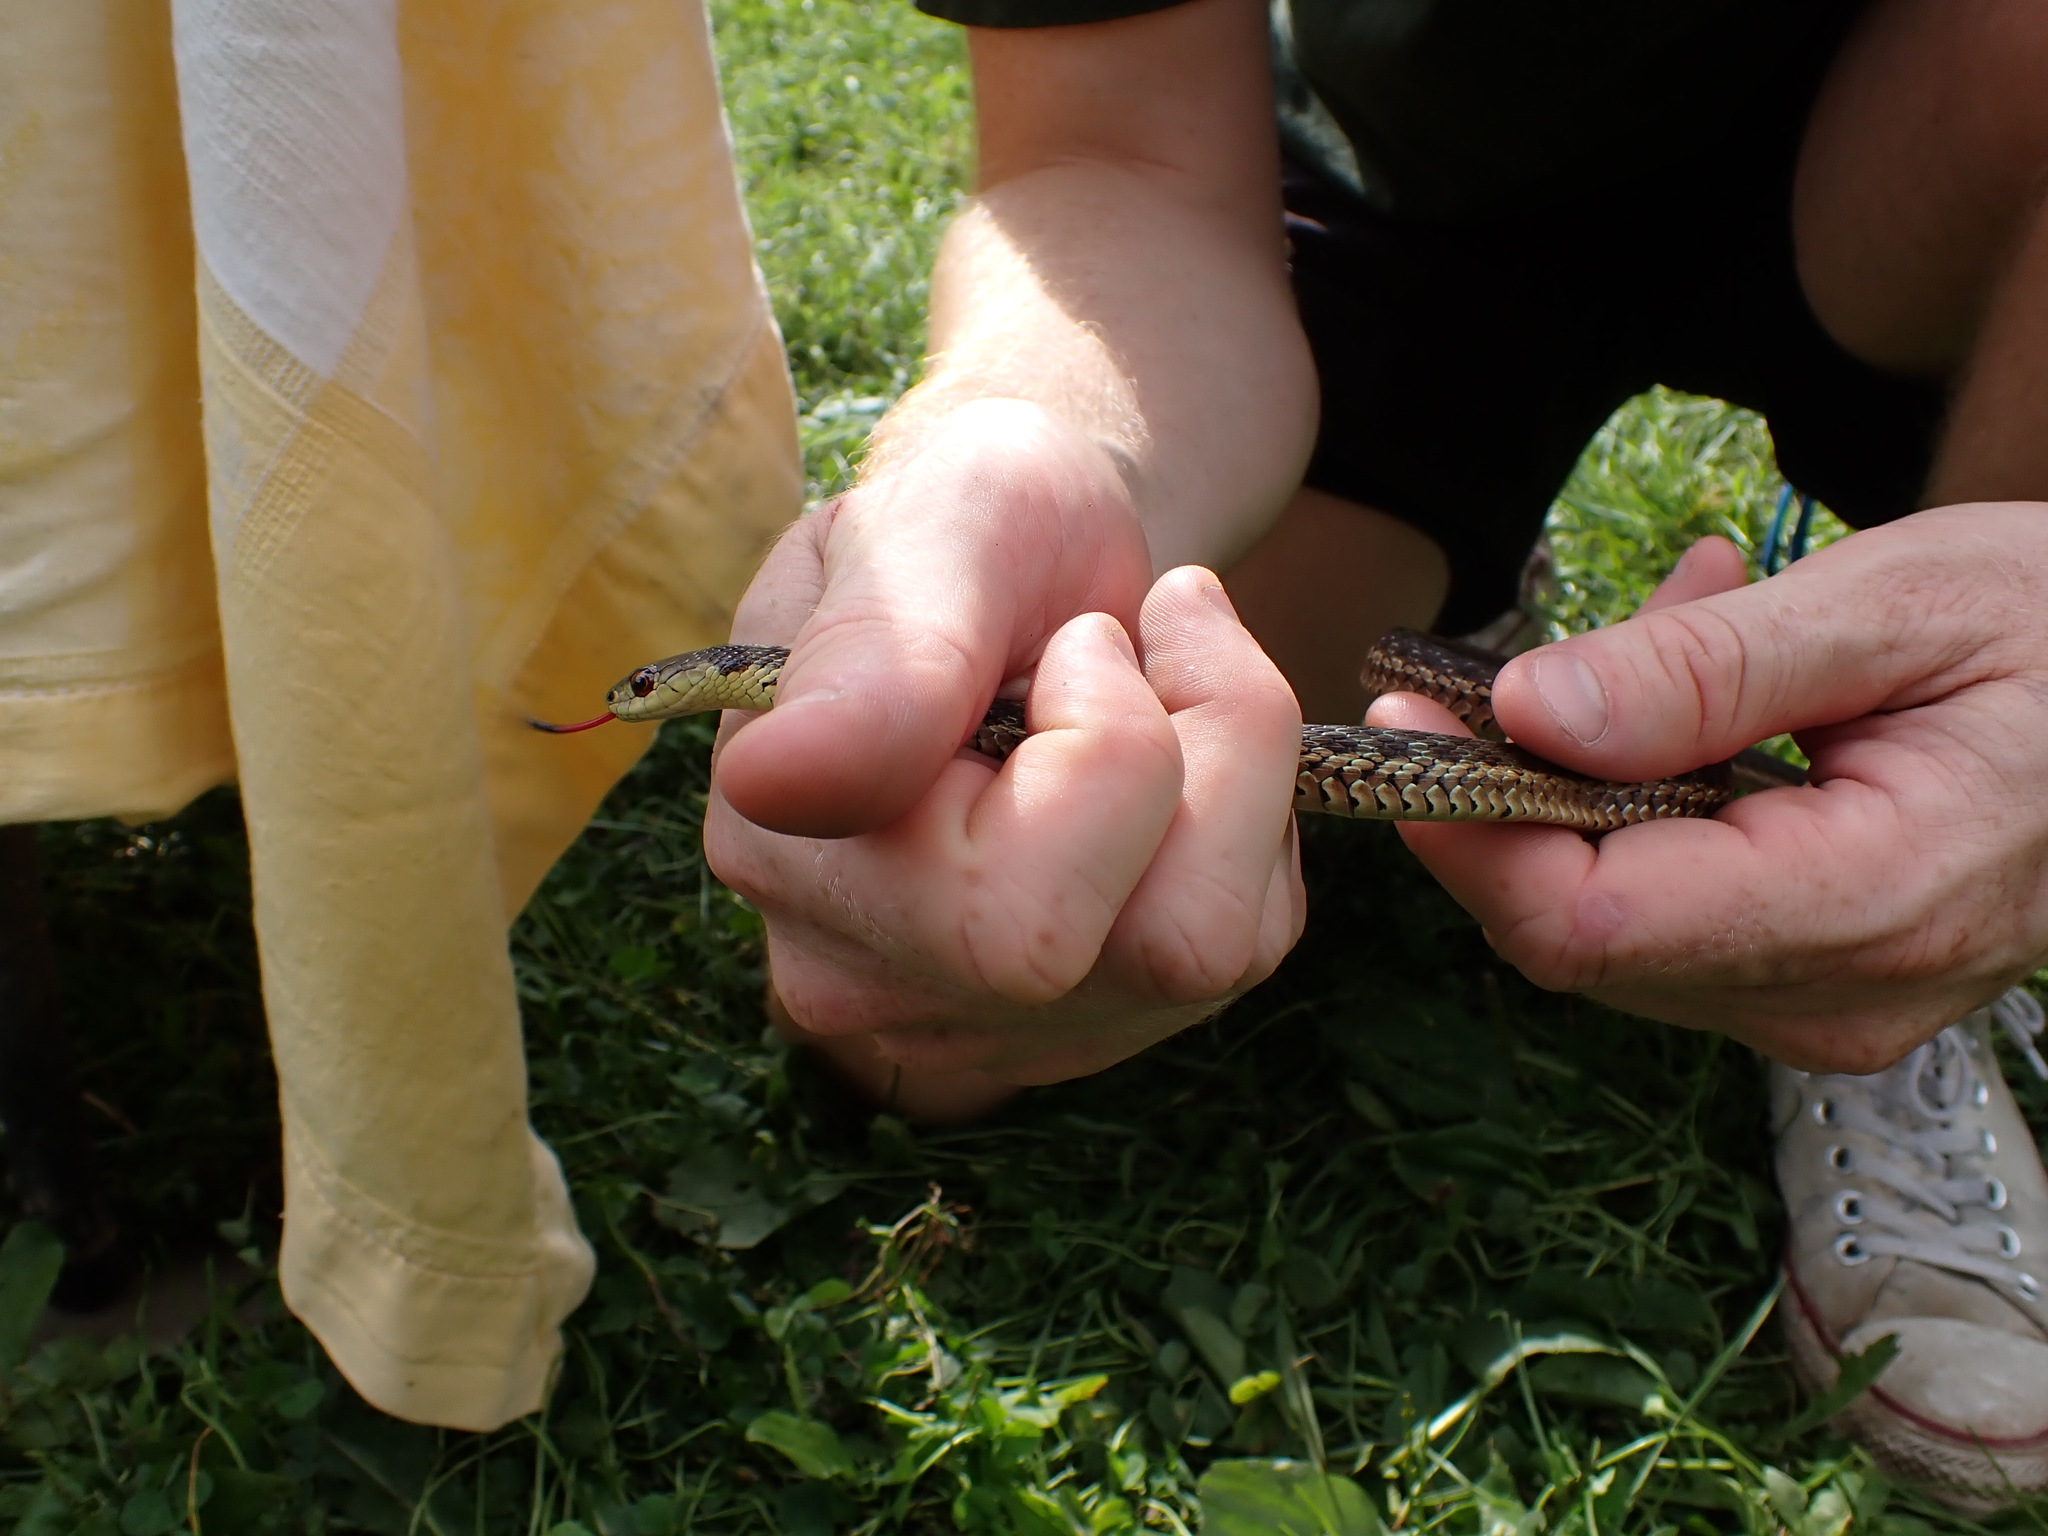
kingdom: Animalia
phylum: Chordata
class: Squamata
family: Colubridae
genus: Thamnophis
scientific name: Thamnophis sirtalis
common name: Common garter snake
